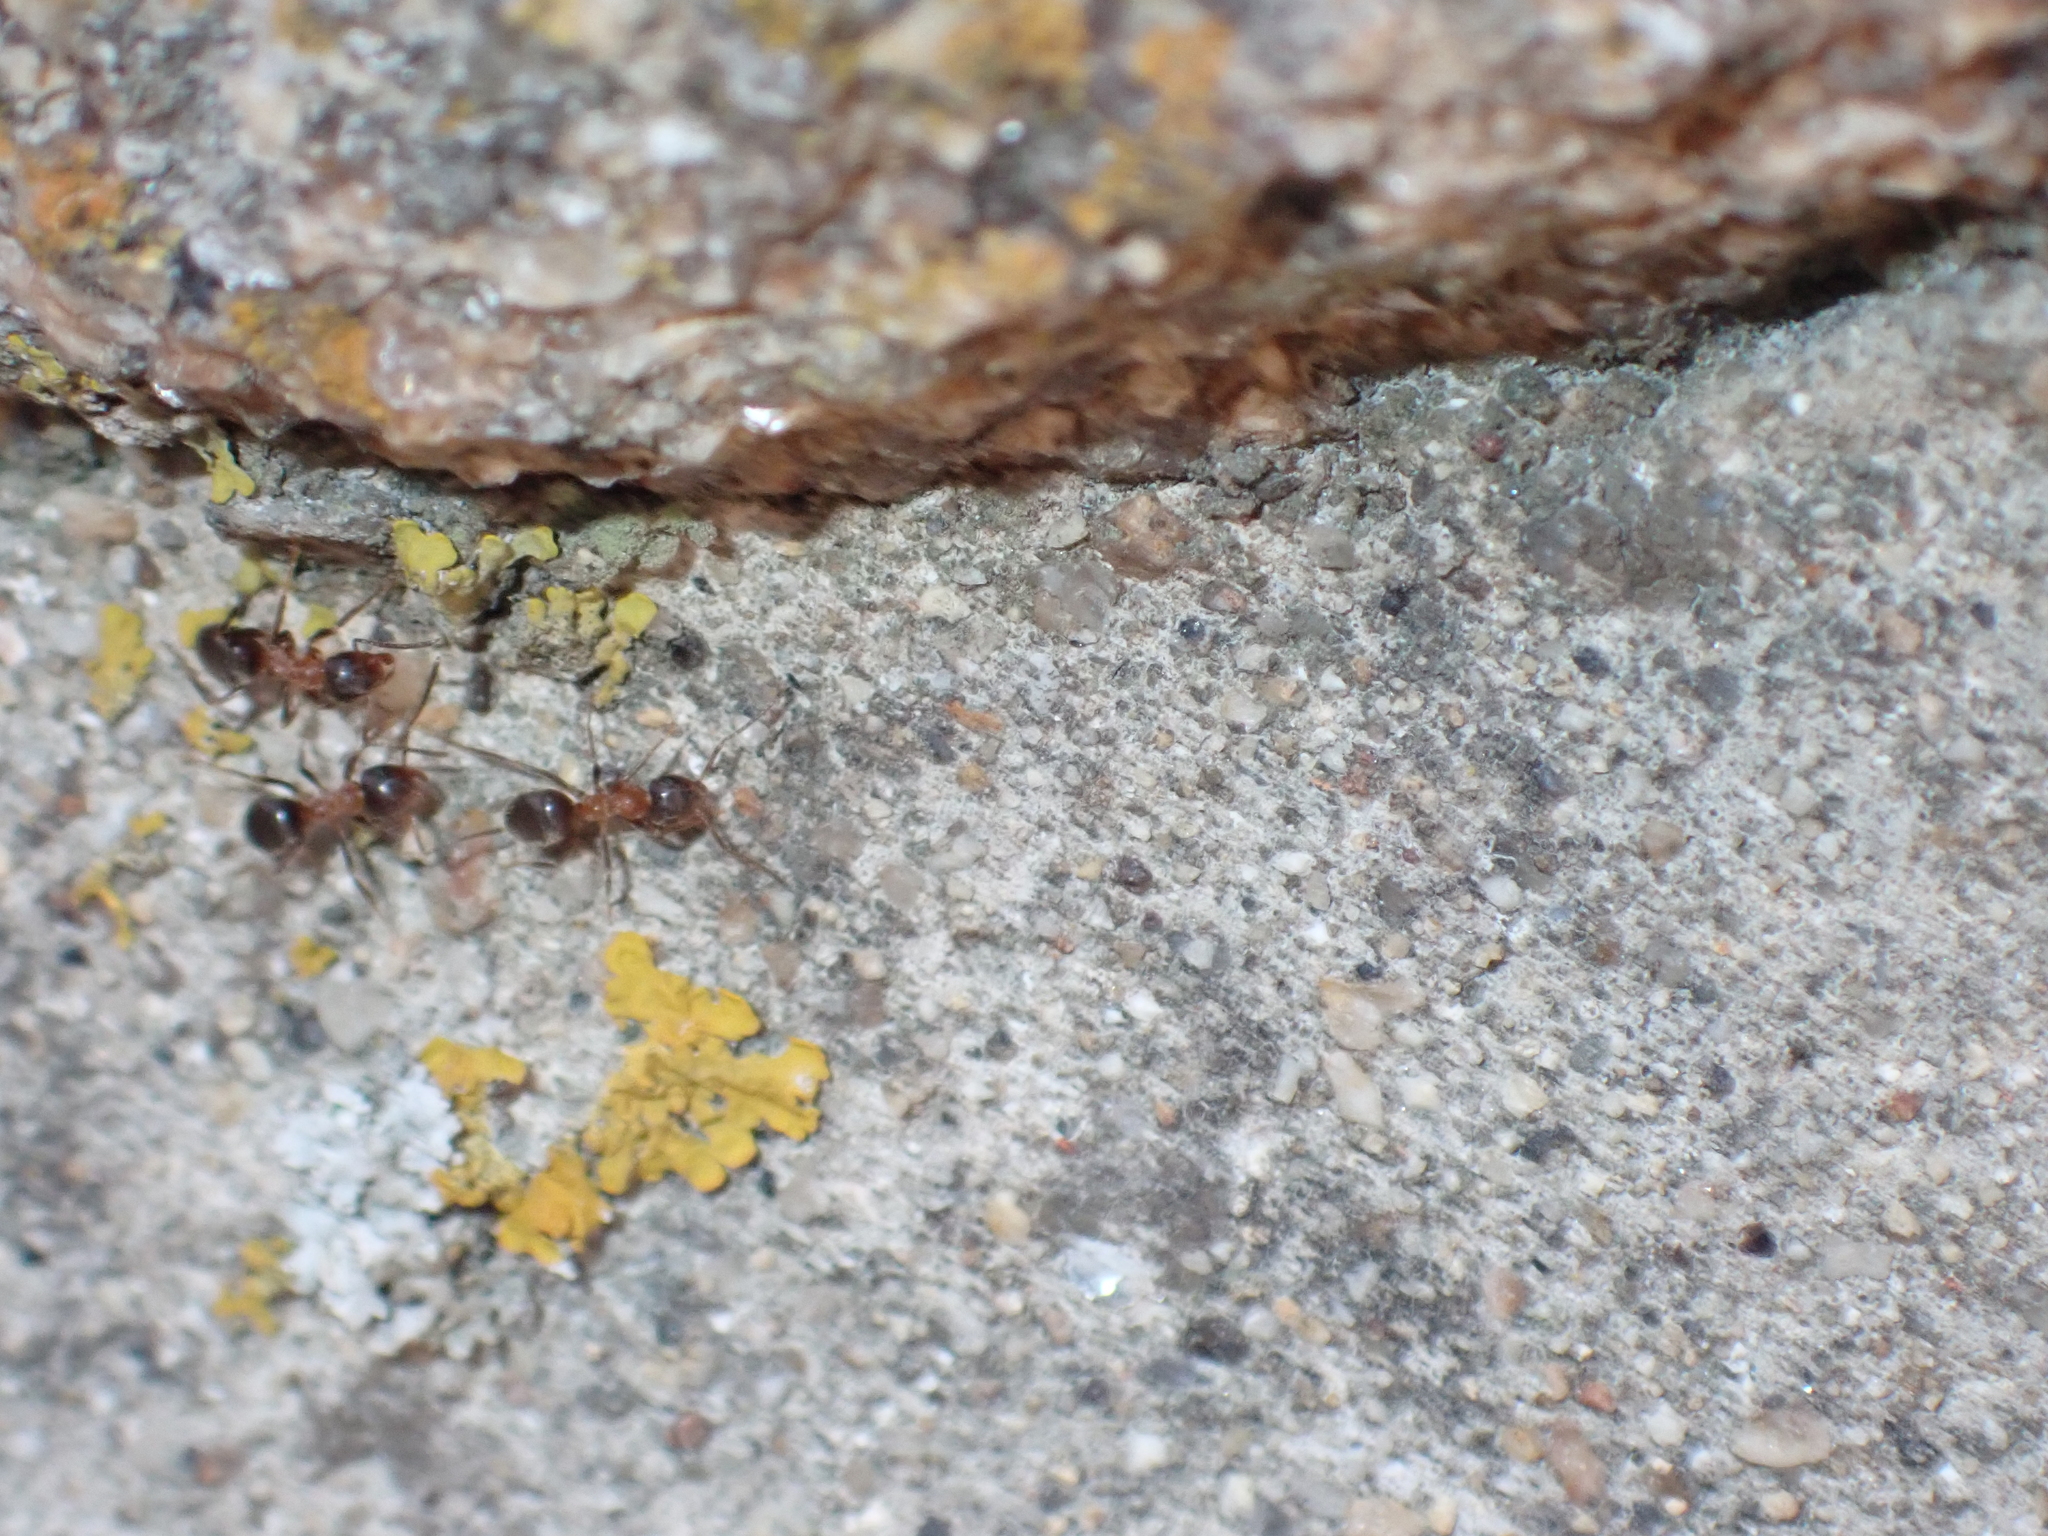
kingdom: Animalia
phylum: Arthropoda
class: Insecta
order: Hymenoptera
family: Formicidae
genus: Lasius
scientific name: Lasius emarginatus
